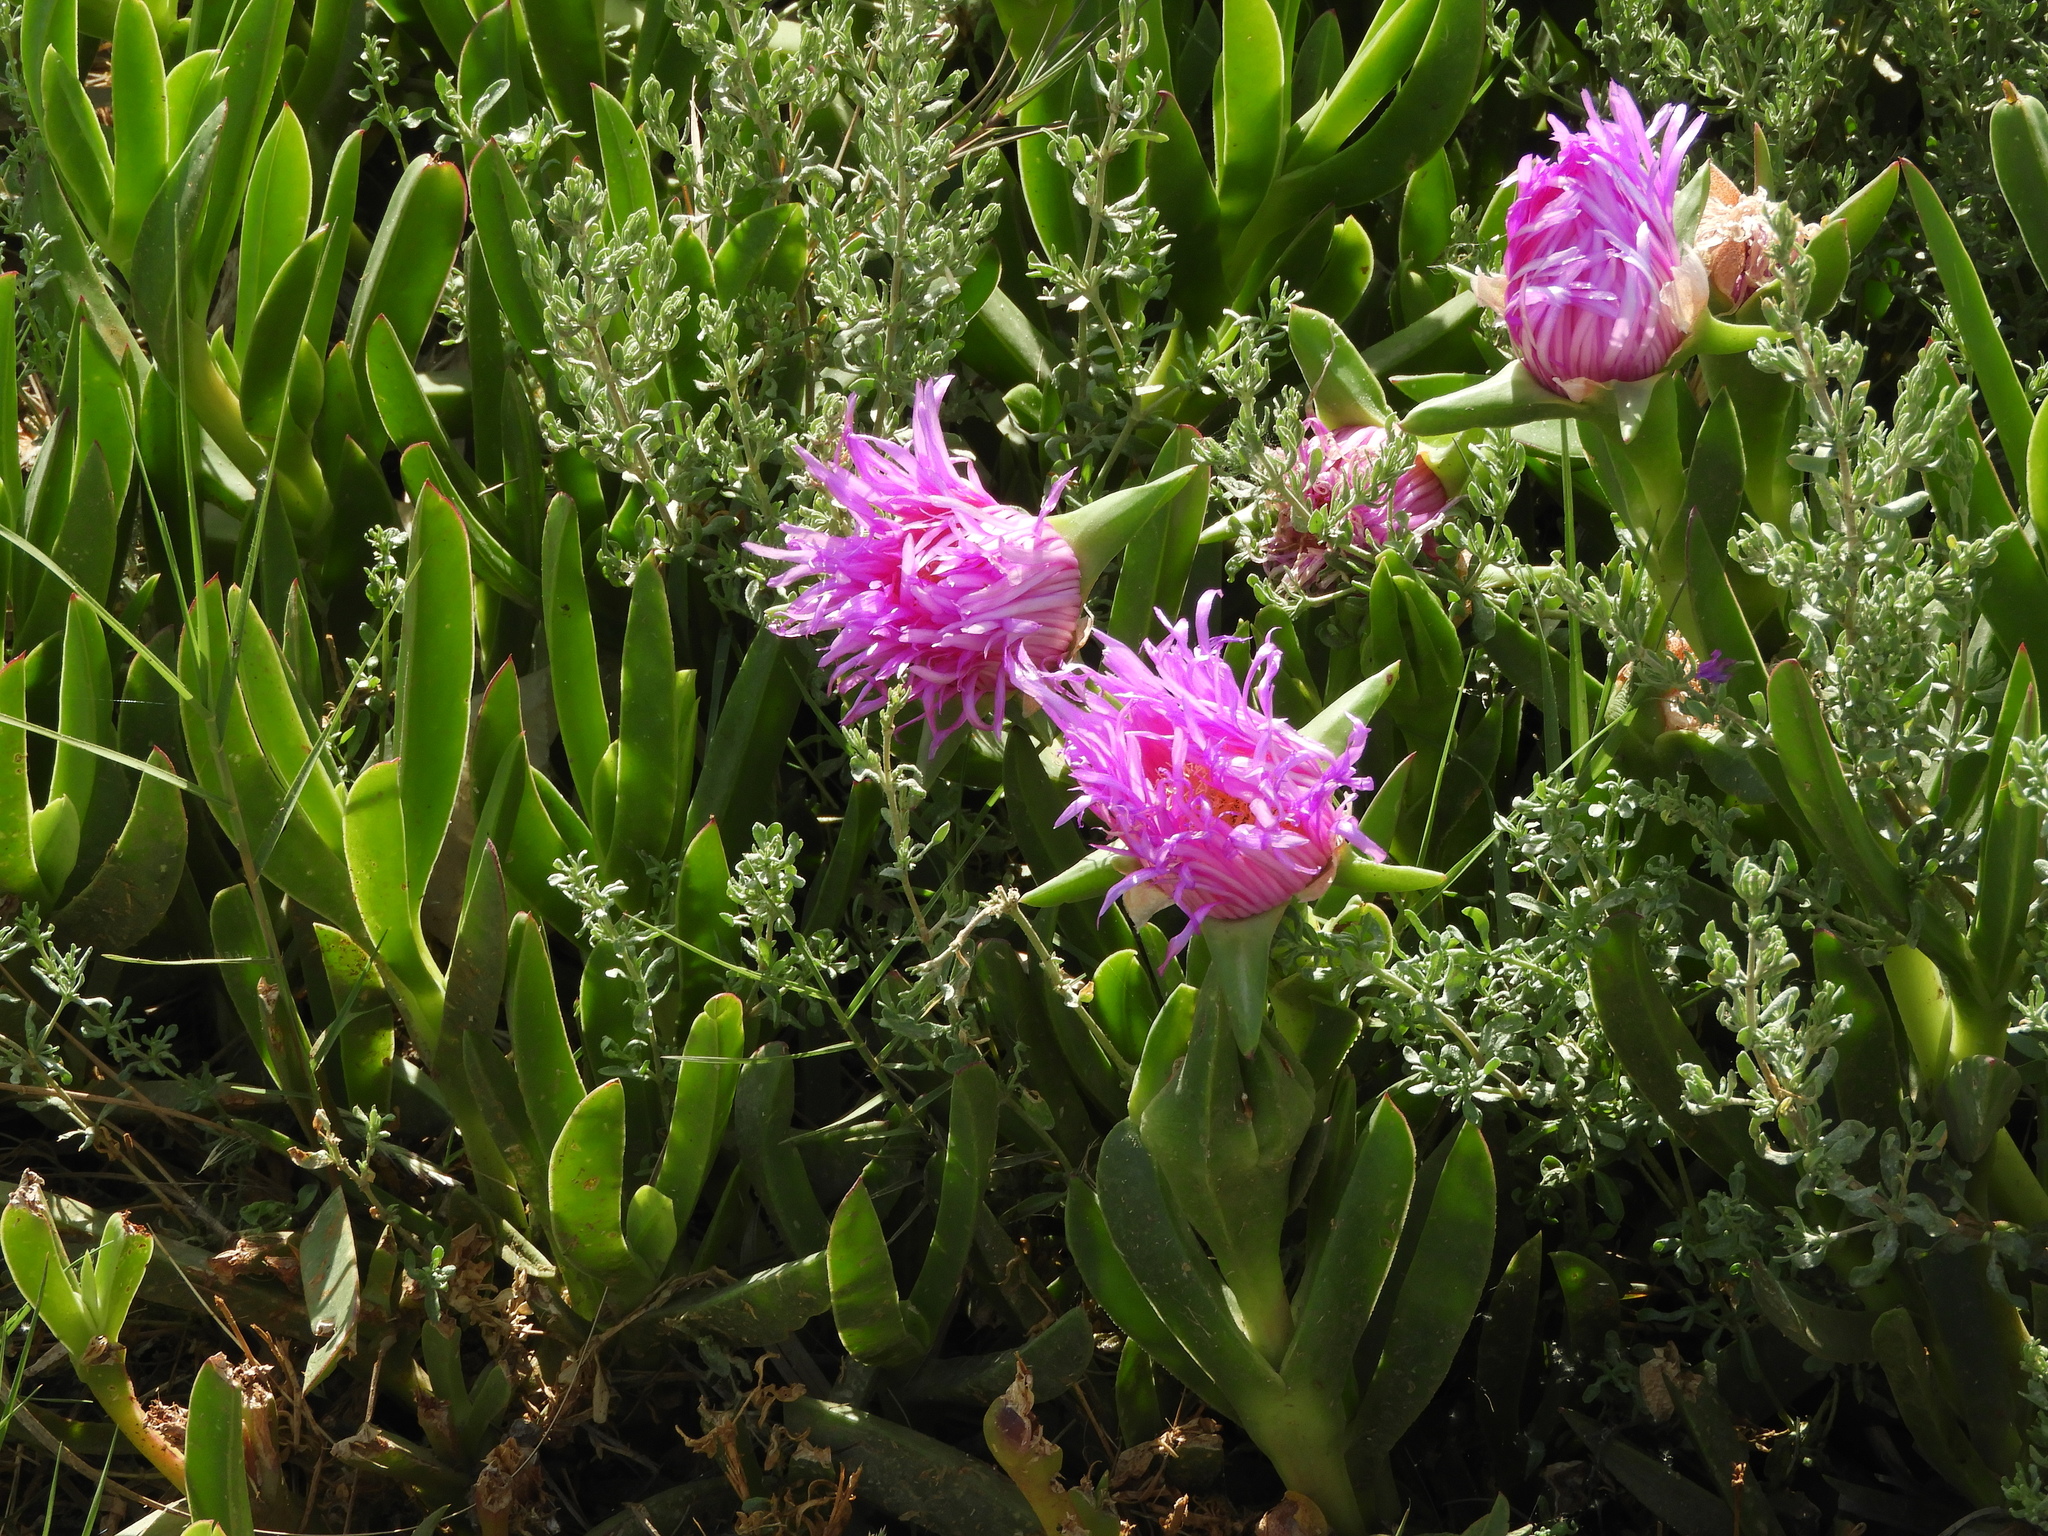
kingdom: Plantae
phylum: Tracheophyta
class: Magnoliopsida
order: Caryophyllales
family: Aizoaceae
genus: Carpobrotus
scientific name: Carpobrotus edulis
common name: Hottentot-fig
